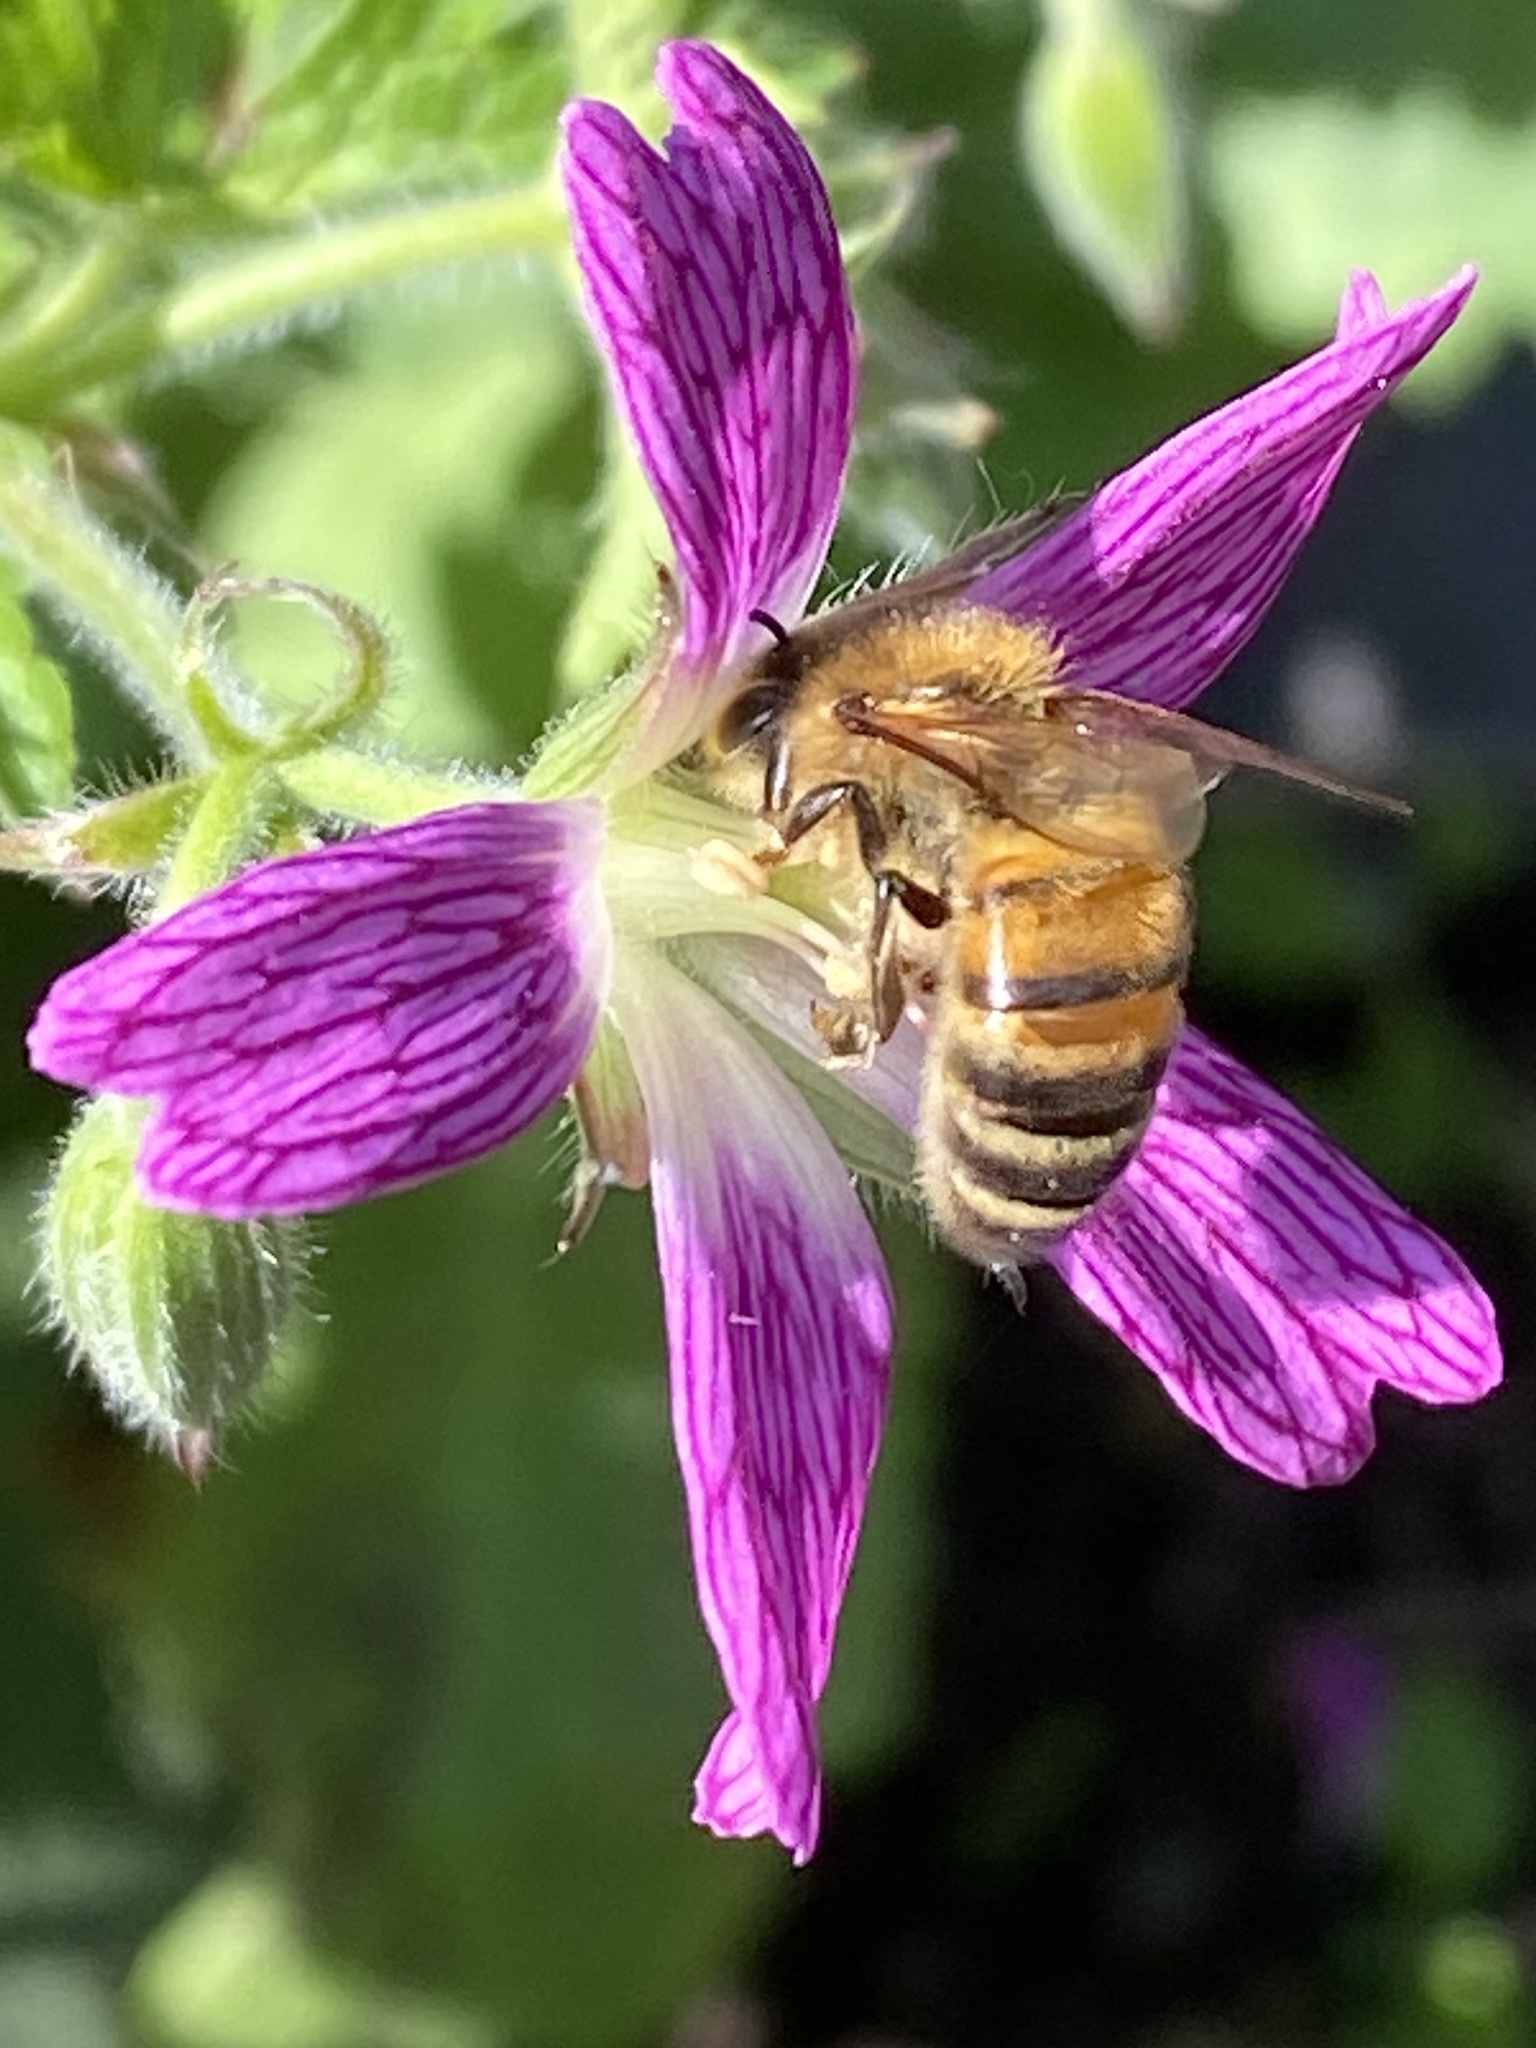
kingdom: Animalia
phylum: Arthropoda
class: Insecta
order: Hymenoptera
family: Apidae
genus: Apis
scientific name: Apis mellifera
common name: Honey bee
